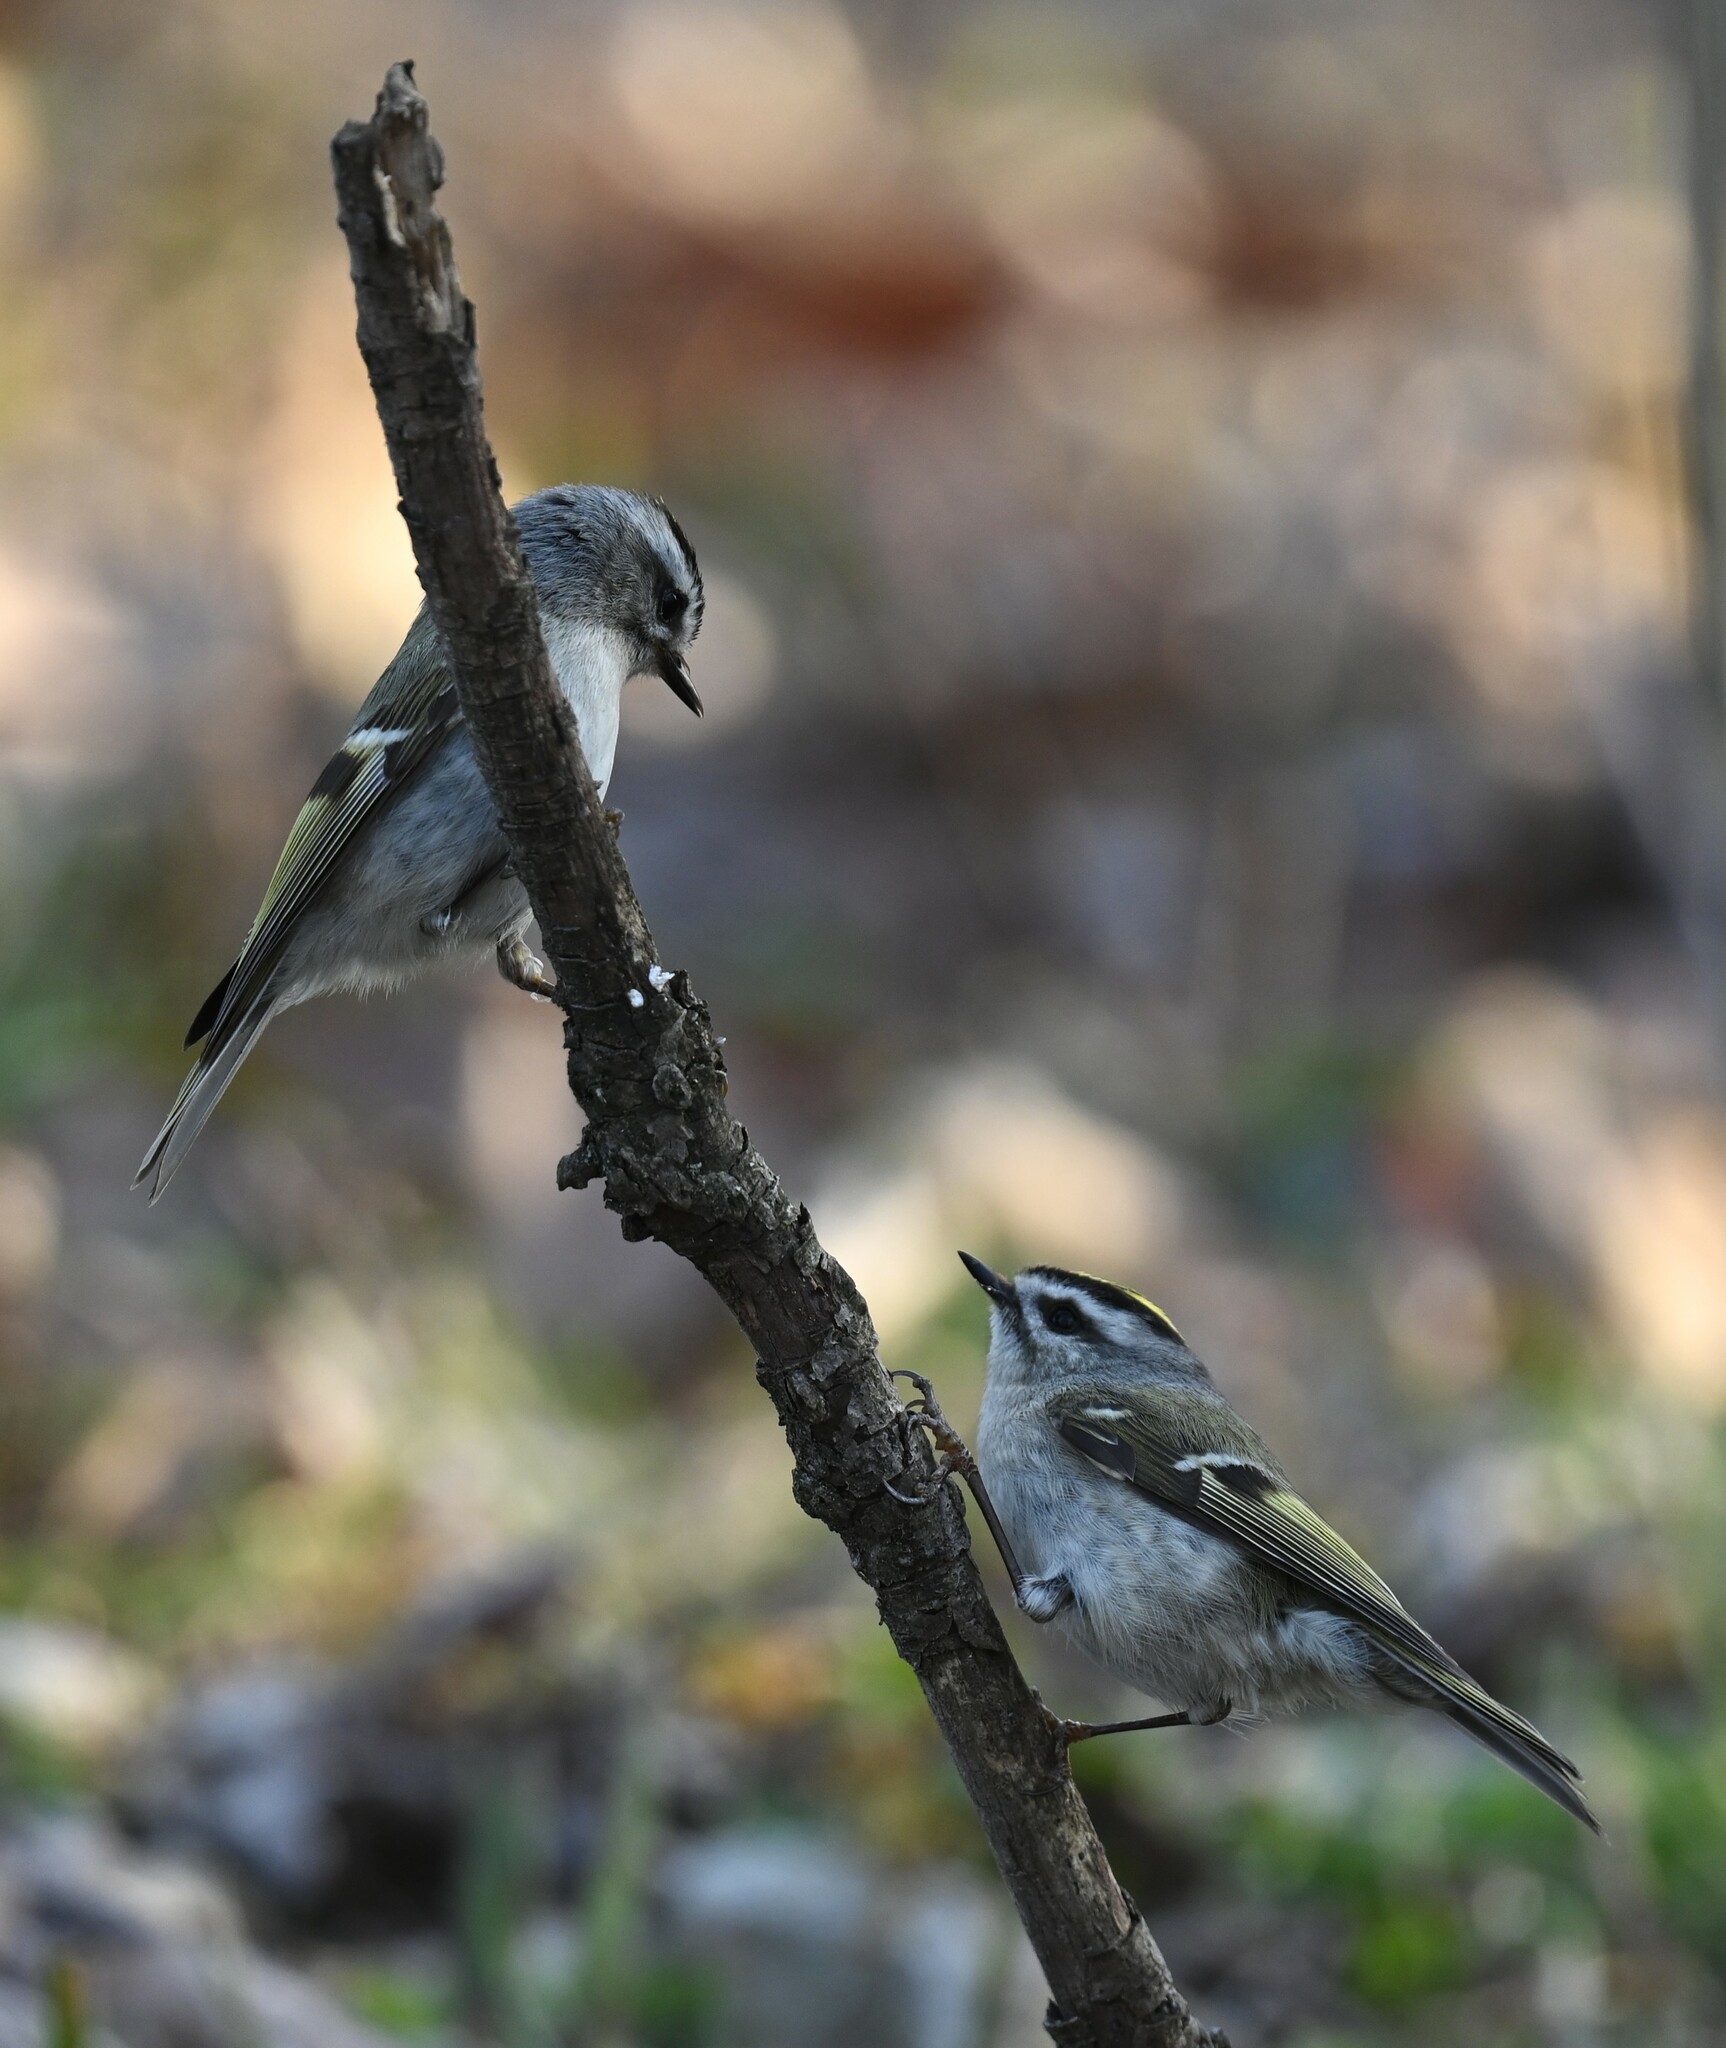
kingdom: Animalia
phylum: Chordata
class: Aves
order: Passeriformes
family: Regulidae
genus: Regulus
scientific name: Regulus satrapa
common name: Golden-crowned kinglet
